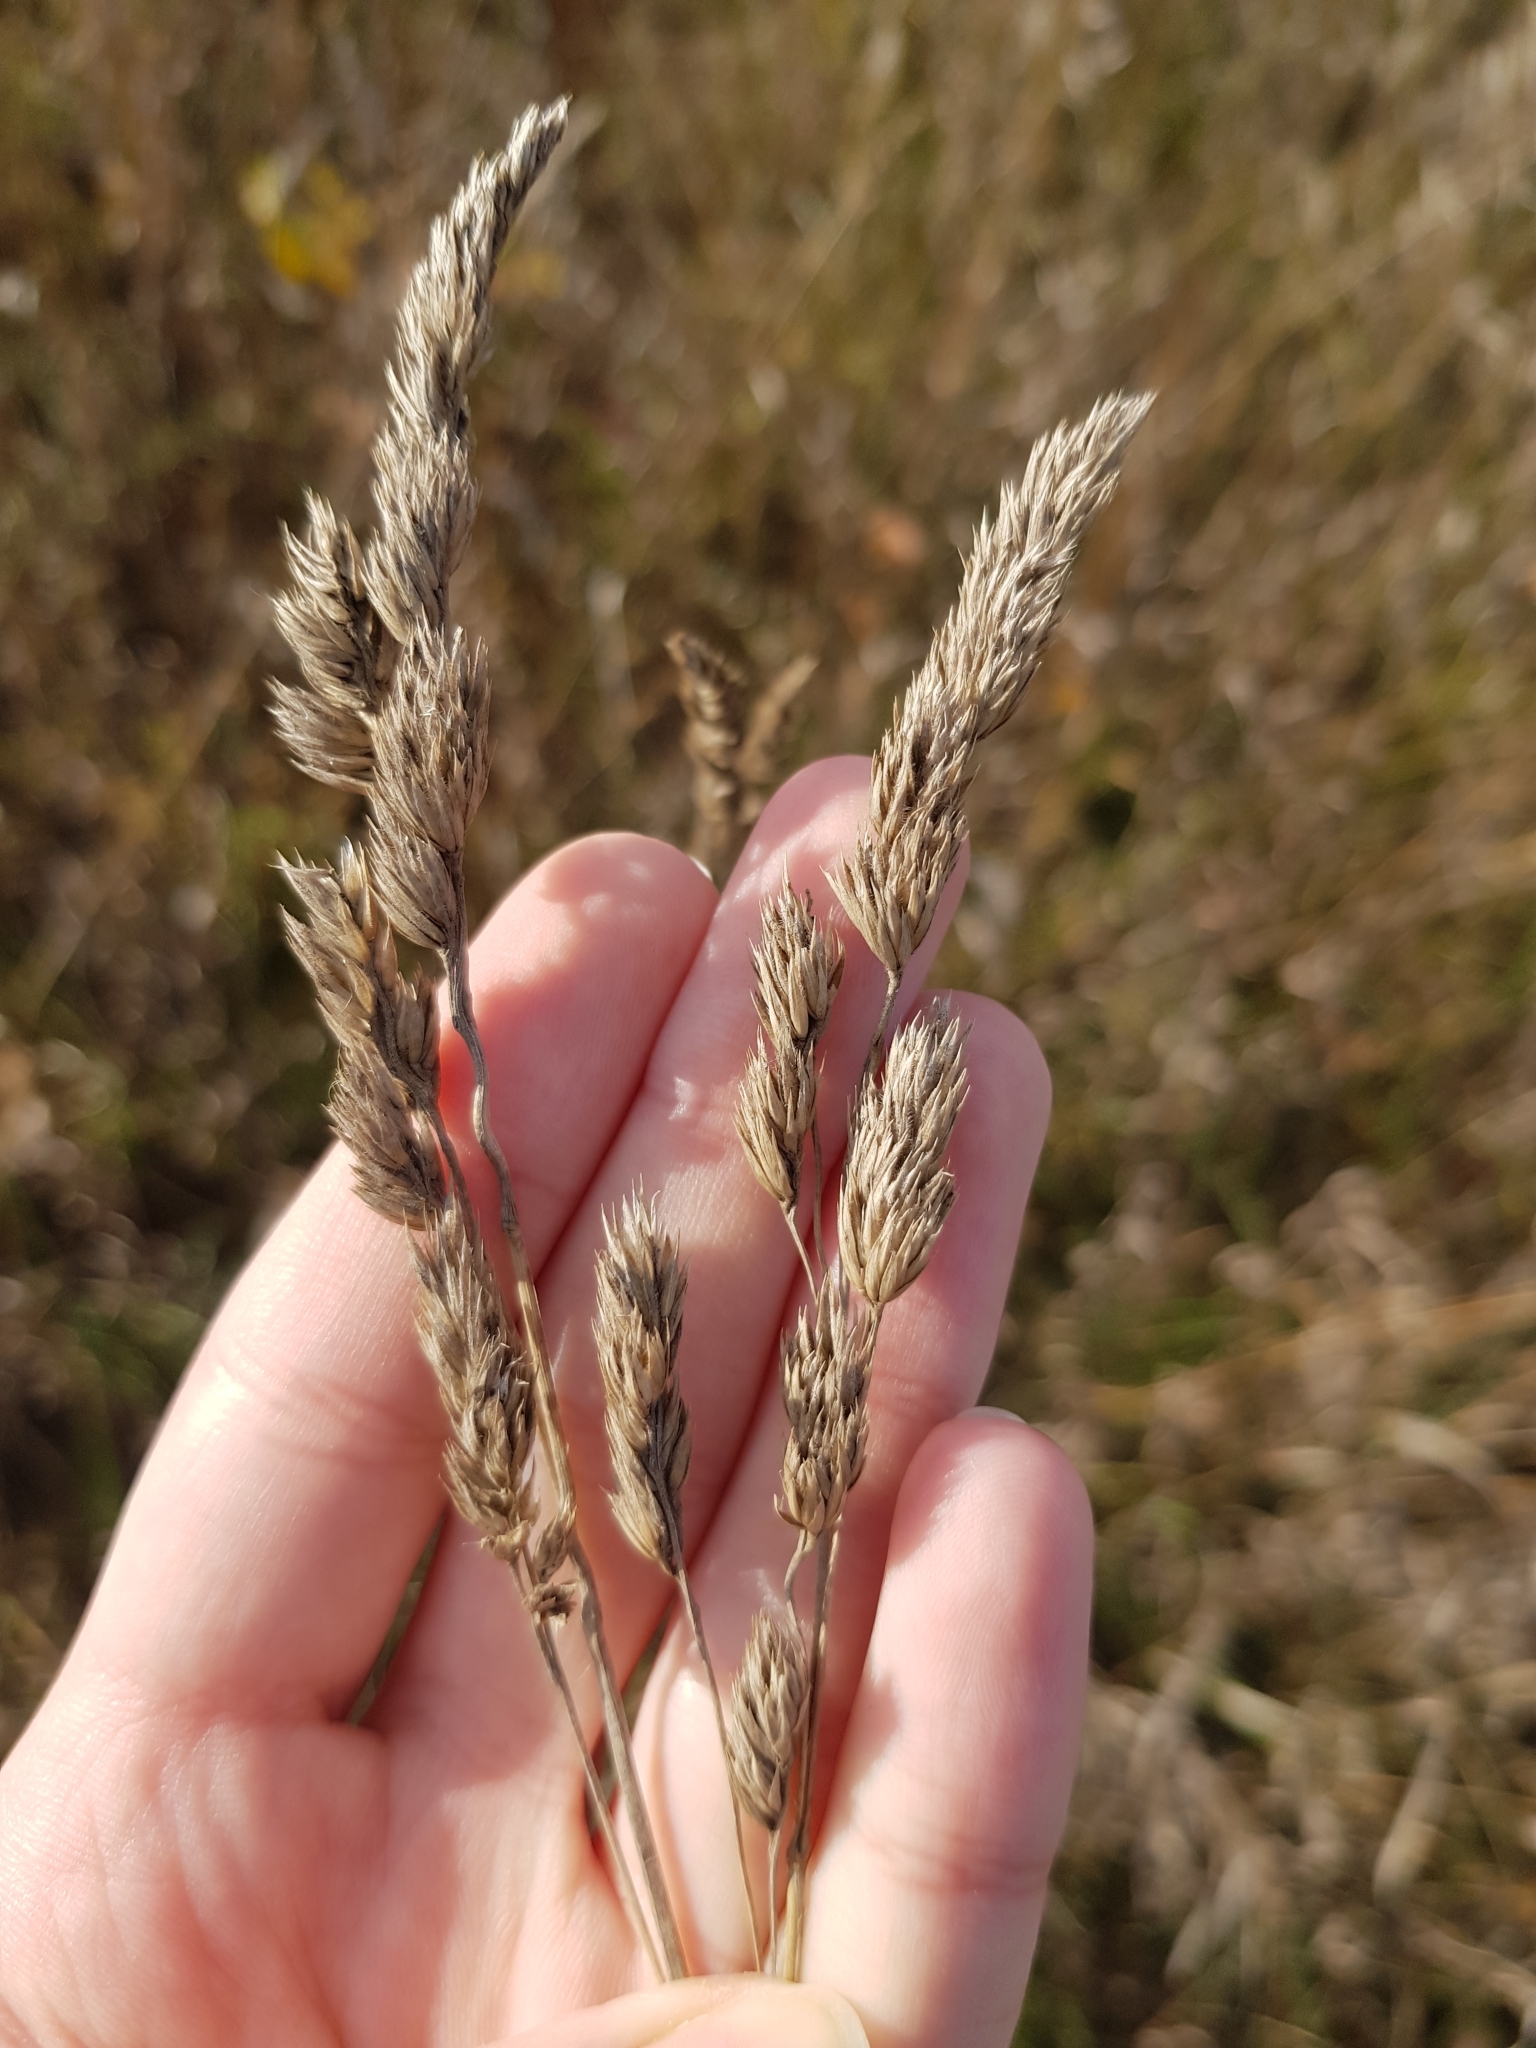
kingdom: Plantae
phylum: Tracheophyta
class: Liliopsida
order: Poales
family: Poaceae
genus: Dactylis
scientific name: Dactylis glomerata
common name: Orchardgrass
